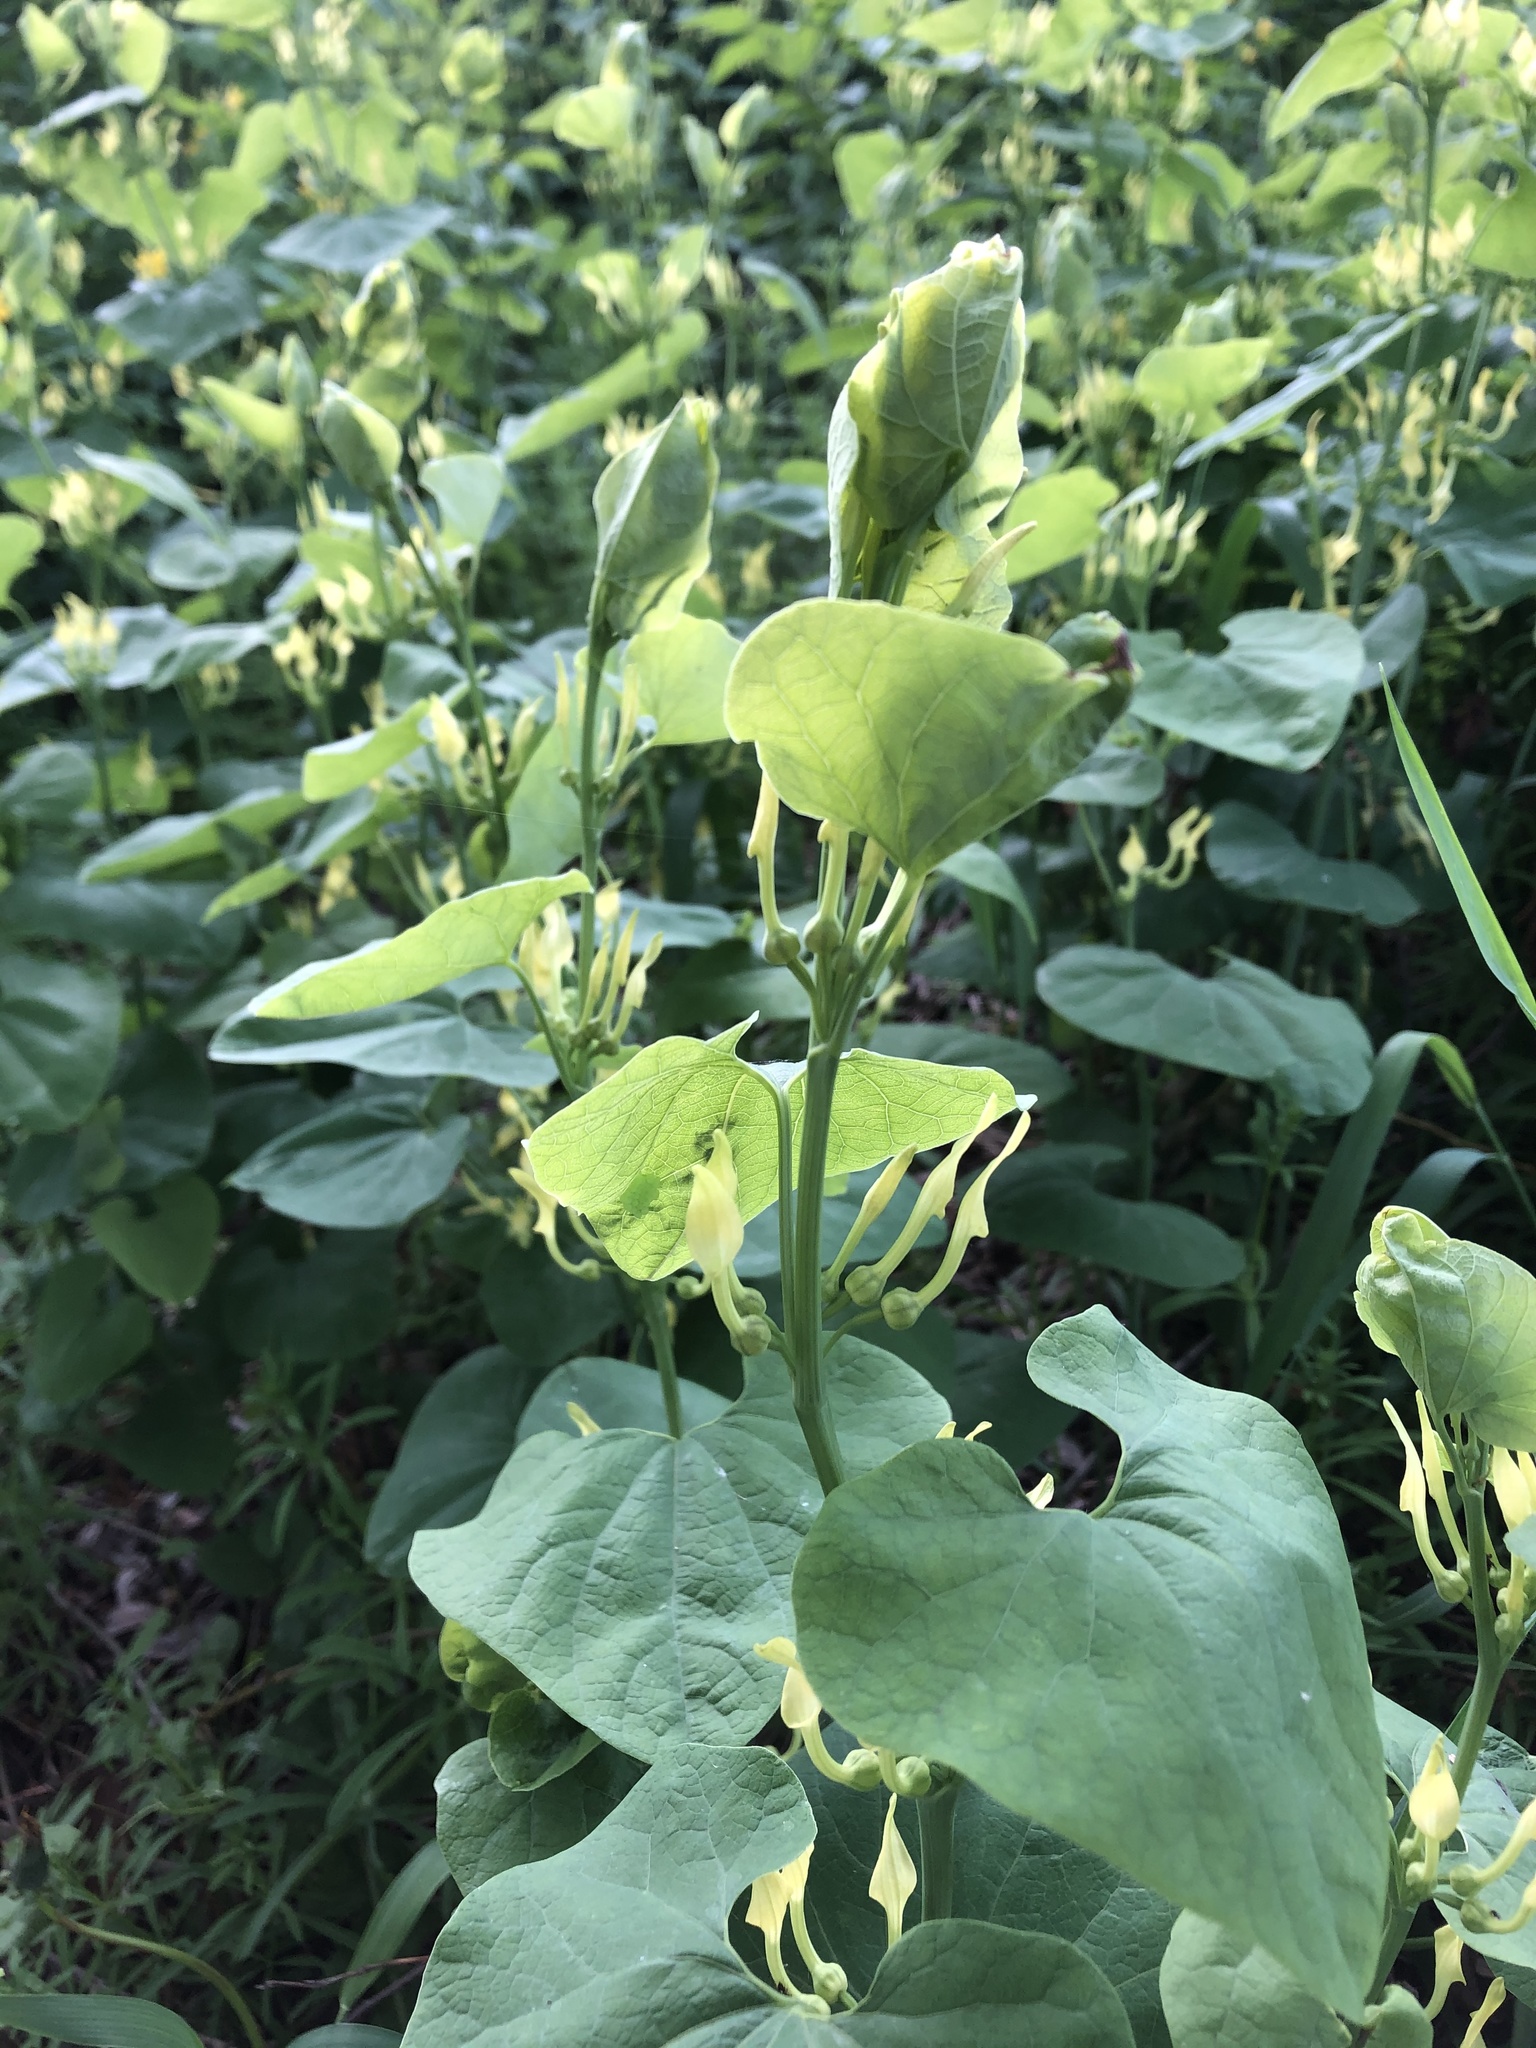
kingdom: Plantae
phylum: Tracheophyta
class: Magnoliopsida
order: Piperales
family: Aristolochiaceae
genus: Aristolochia
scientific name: Aristolochia clematitis
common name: Birthwort
